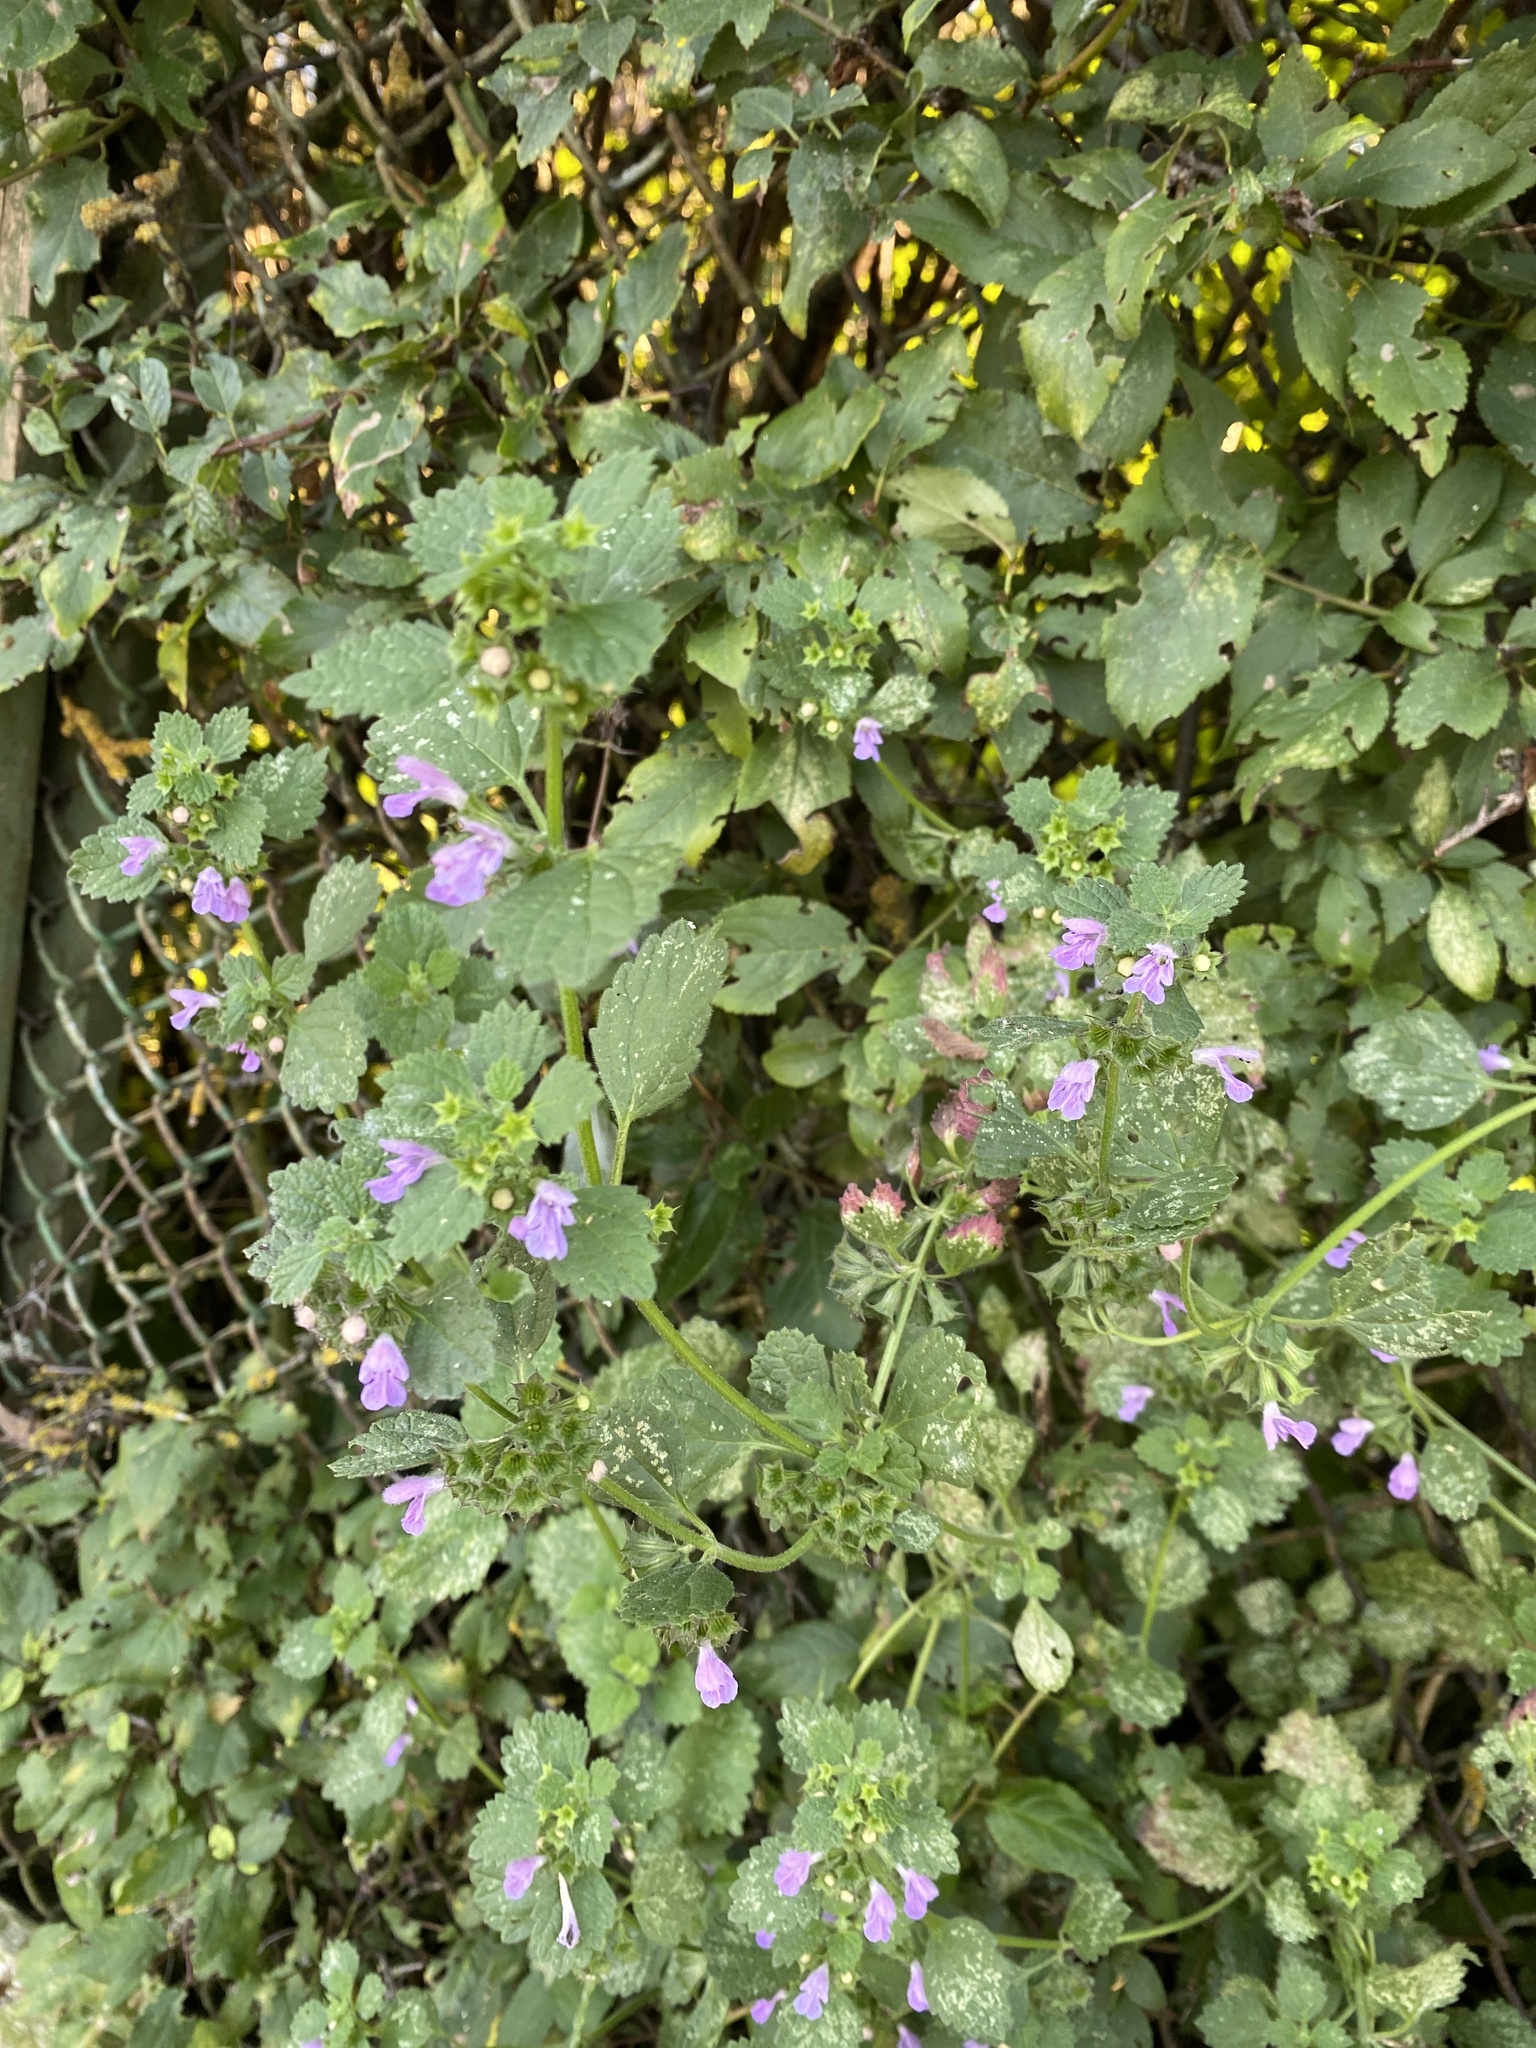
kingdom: Plantae
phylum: Tracheophyta
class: Magnoliopsida
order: Lamiales
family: Lamiaceae
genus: Ballota
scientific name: Ballota nigra
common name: Black horehound
